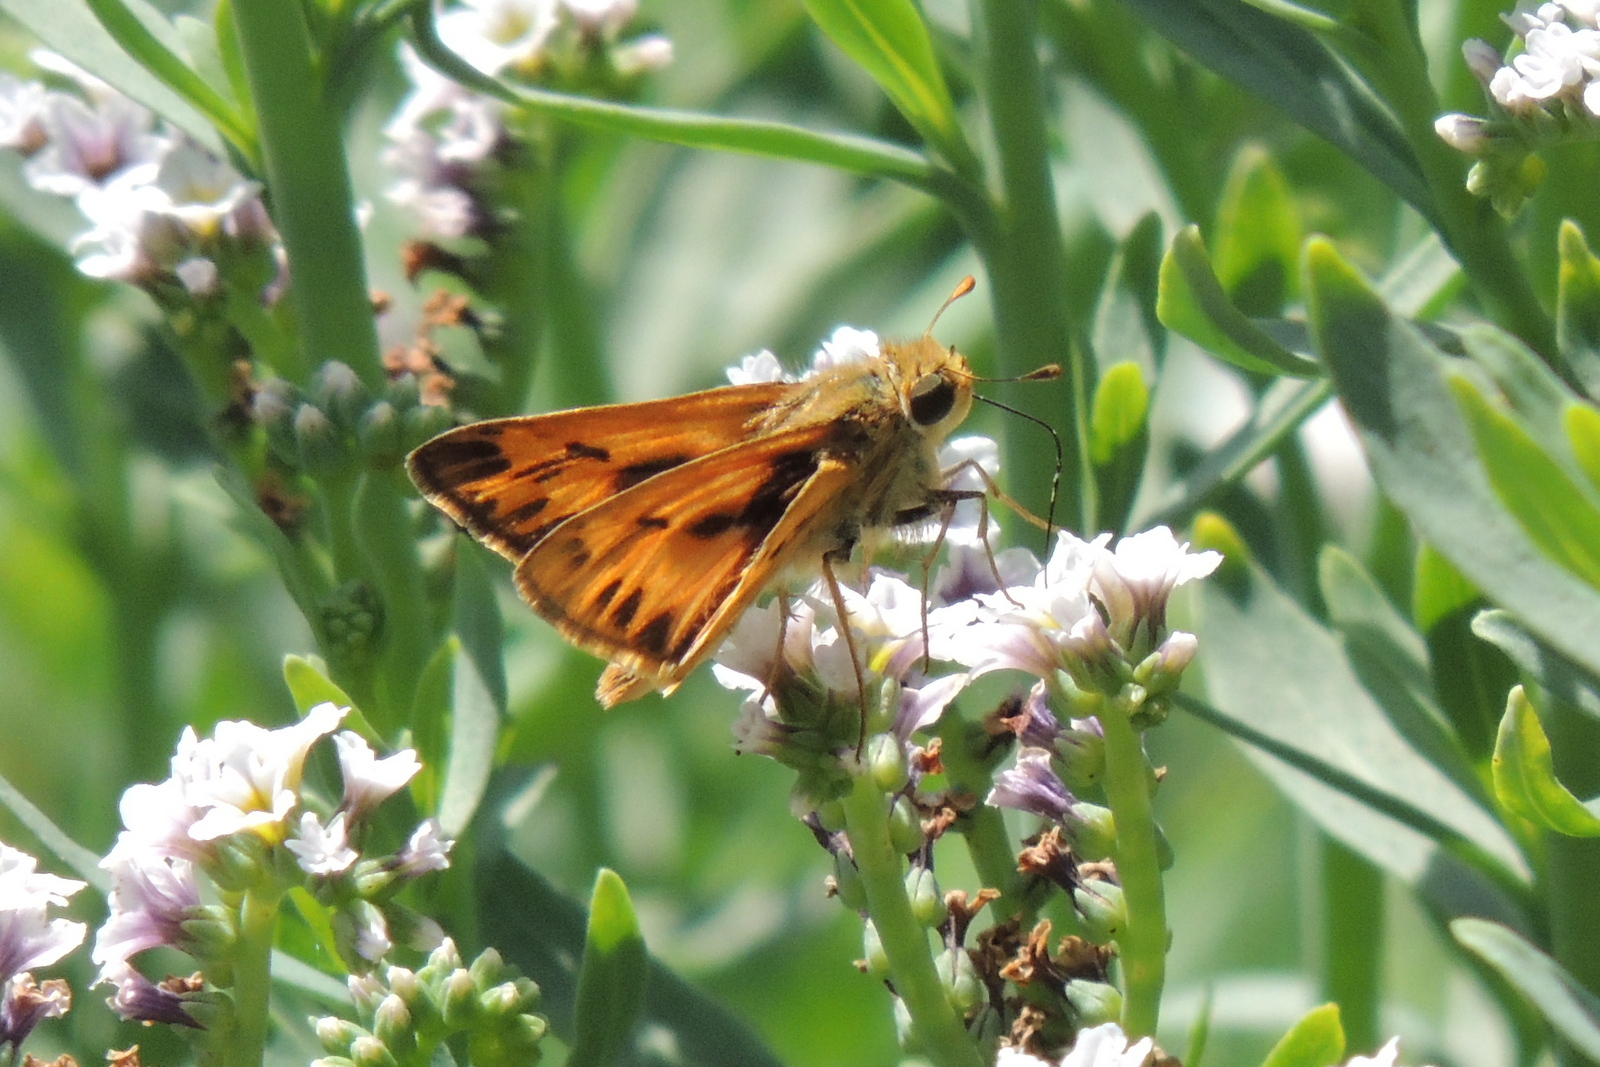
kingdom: Animalia
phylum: Arthropoda
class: Insecta
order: Lepidoptera
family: Hesperiidae
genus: Hylephila
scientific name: Hylephila phyleus
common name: Fiery skipper
